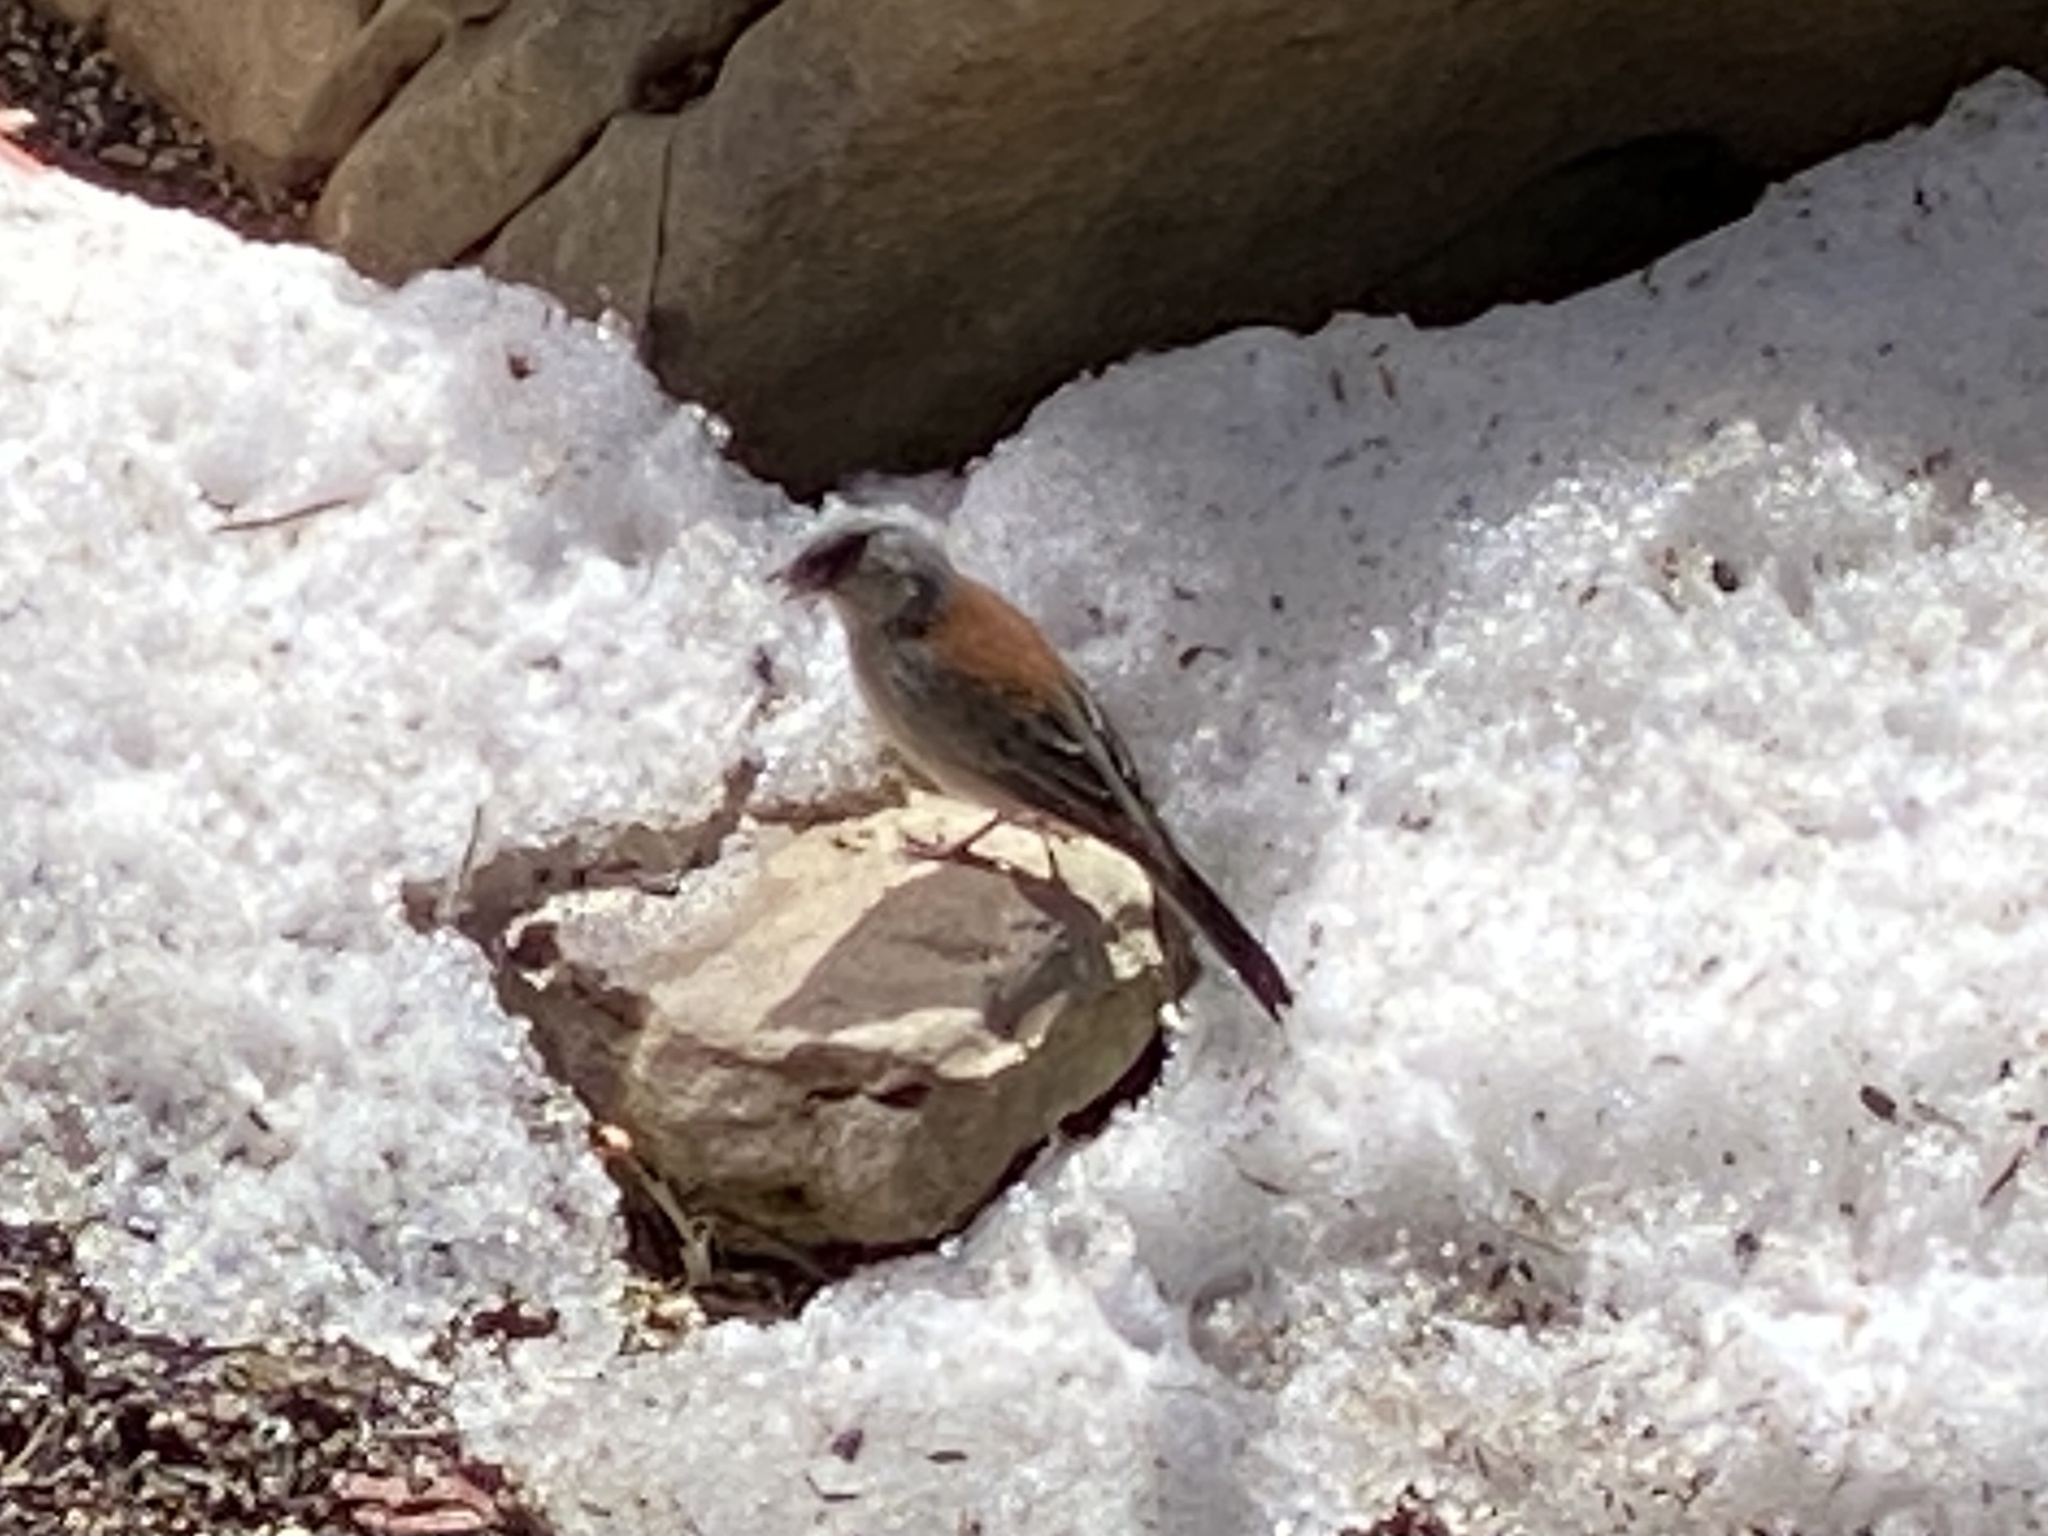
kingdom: Animalia
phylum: Chordata
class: Aves
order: Passeriformes
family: Passerellidae
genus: Junco
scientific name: Junco hyemalis
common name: Dark-eyed junco
